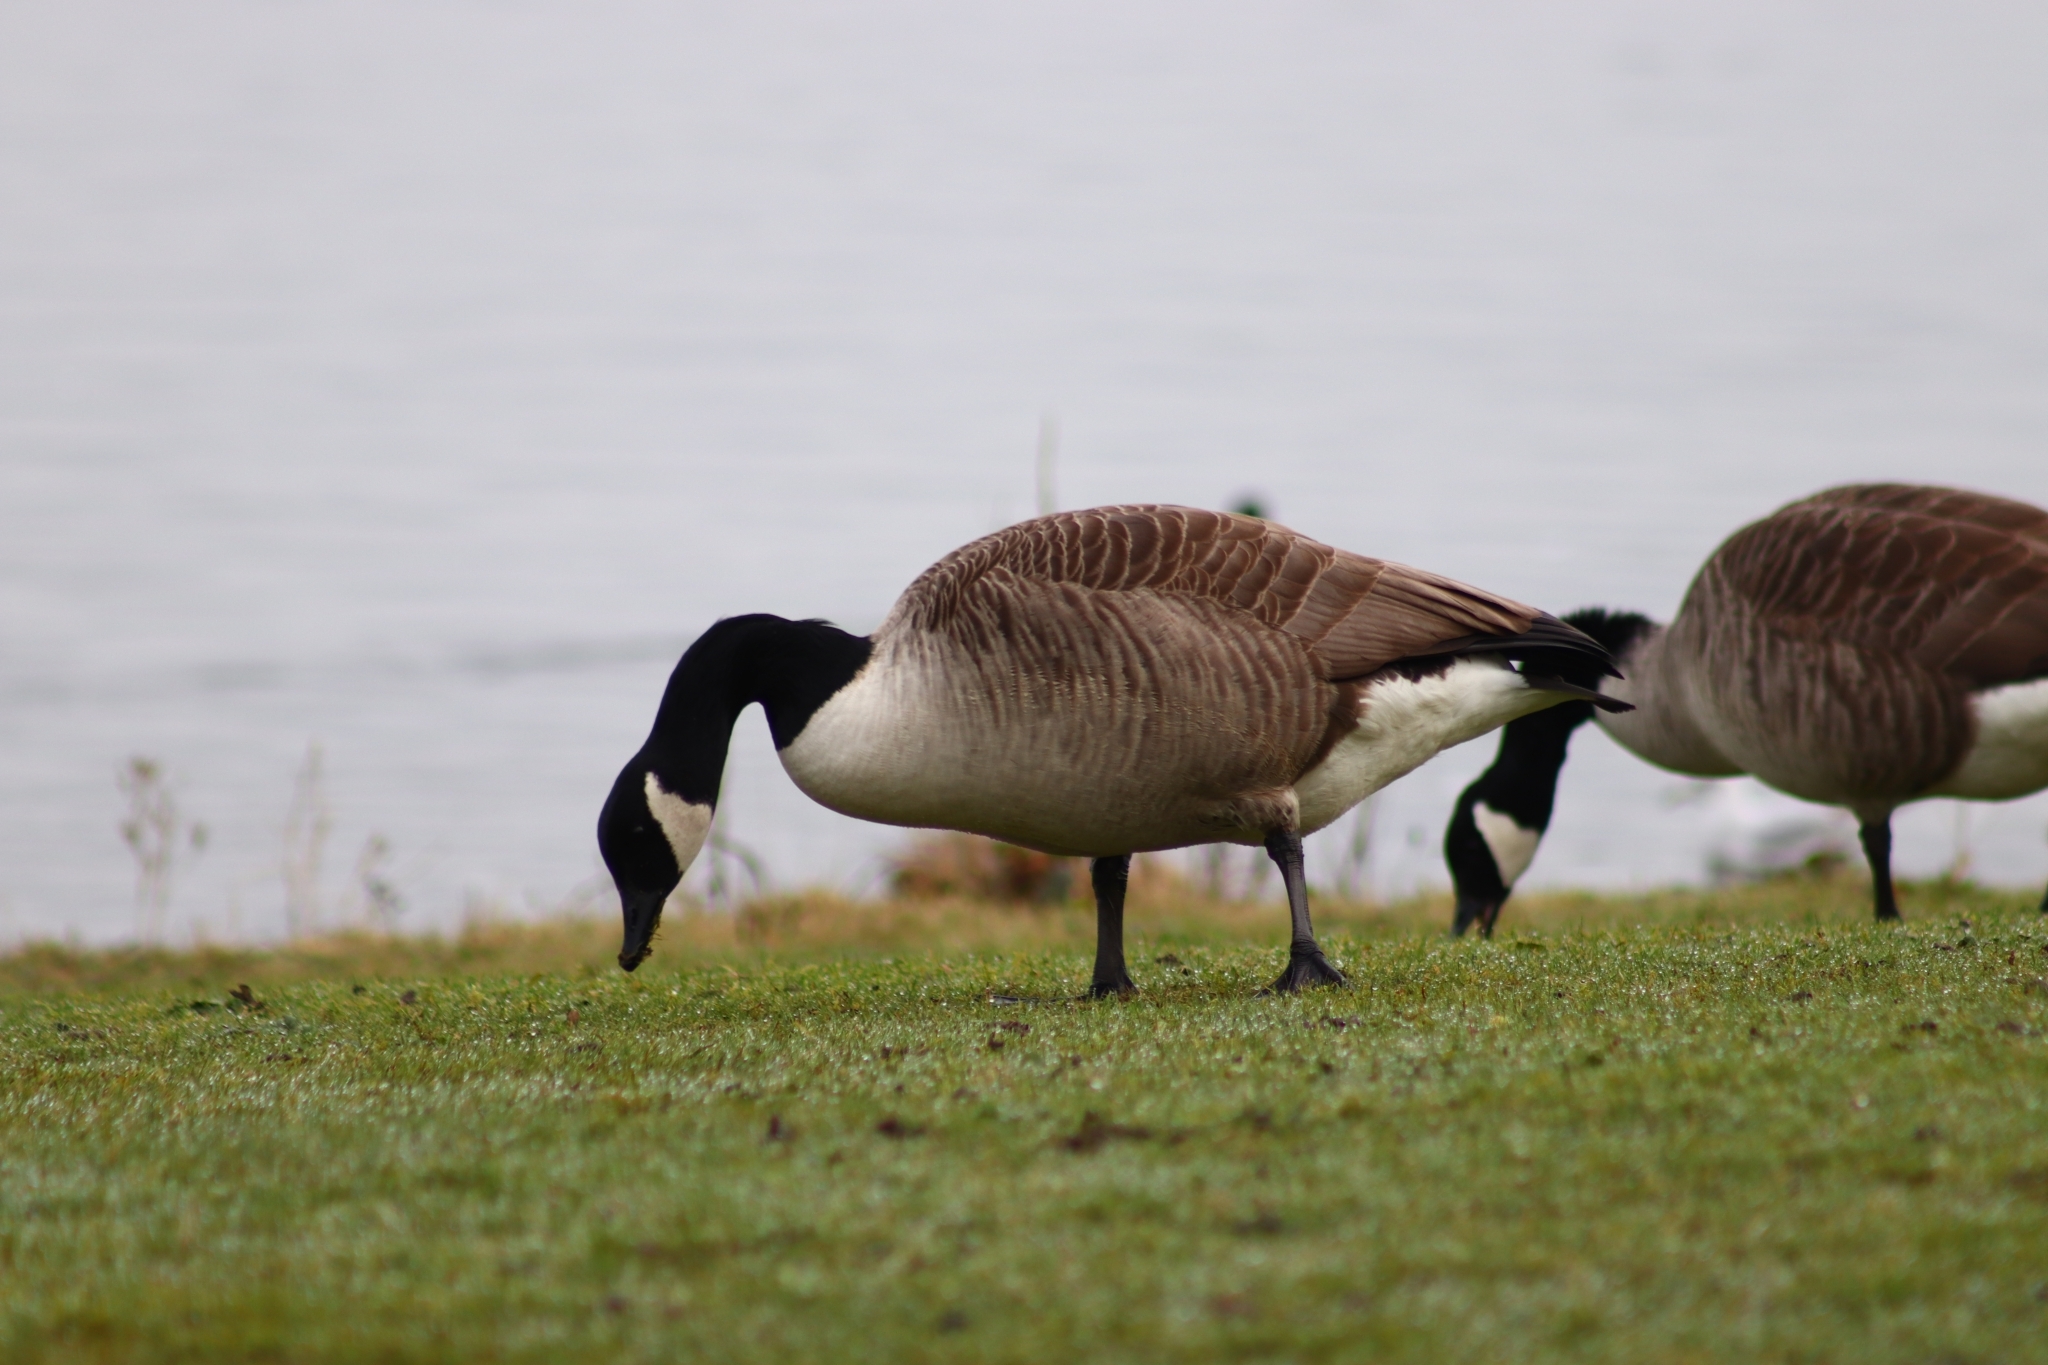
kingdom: Animalia
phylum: Chordata
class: Aves
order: Anseriformes
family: Anatidae
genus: Branta
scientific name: Branta canadensis
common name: Canada goose
